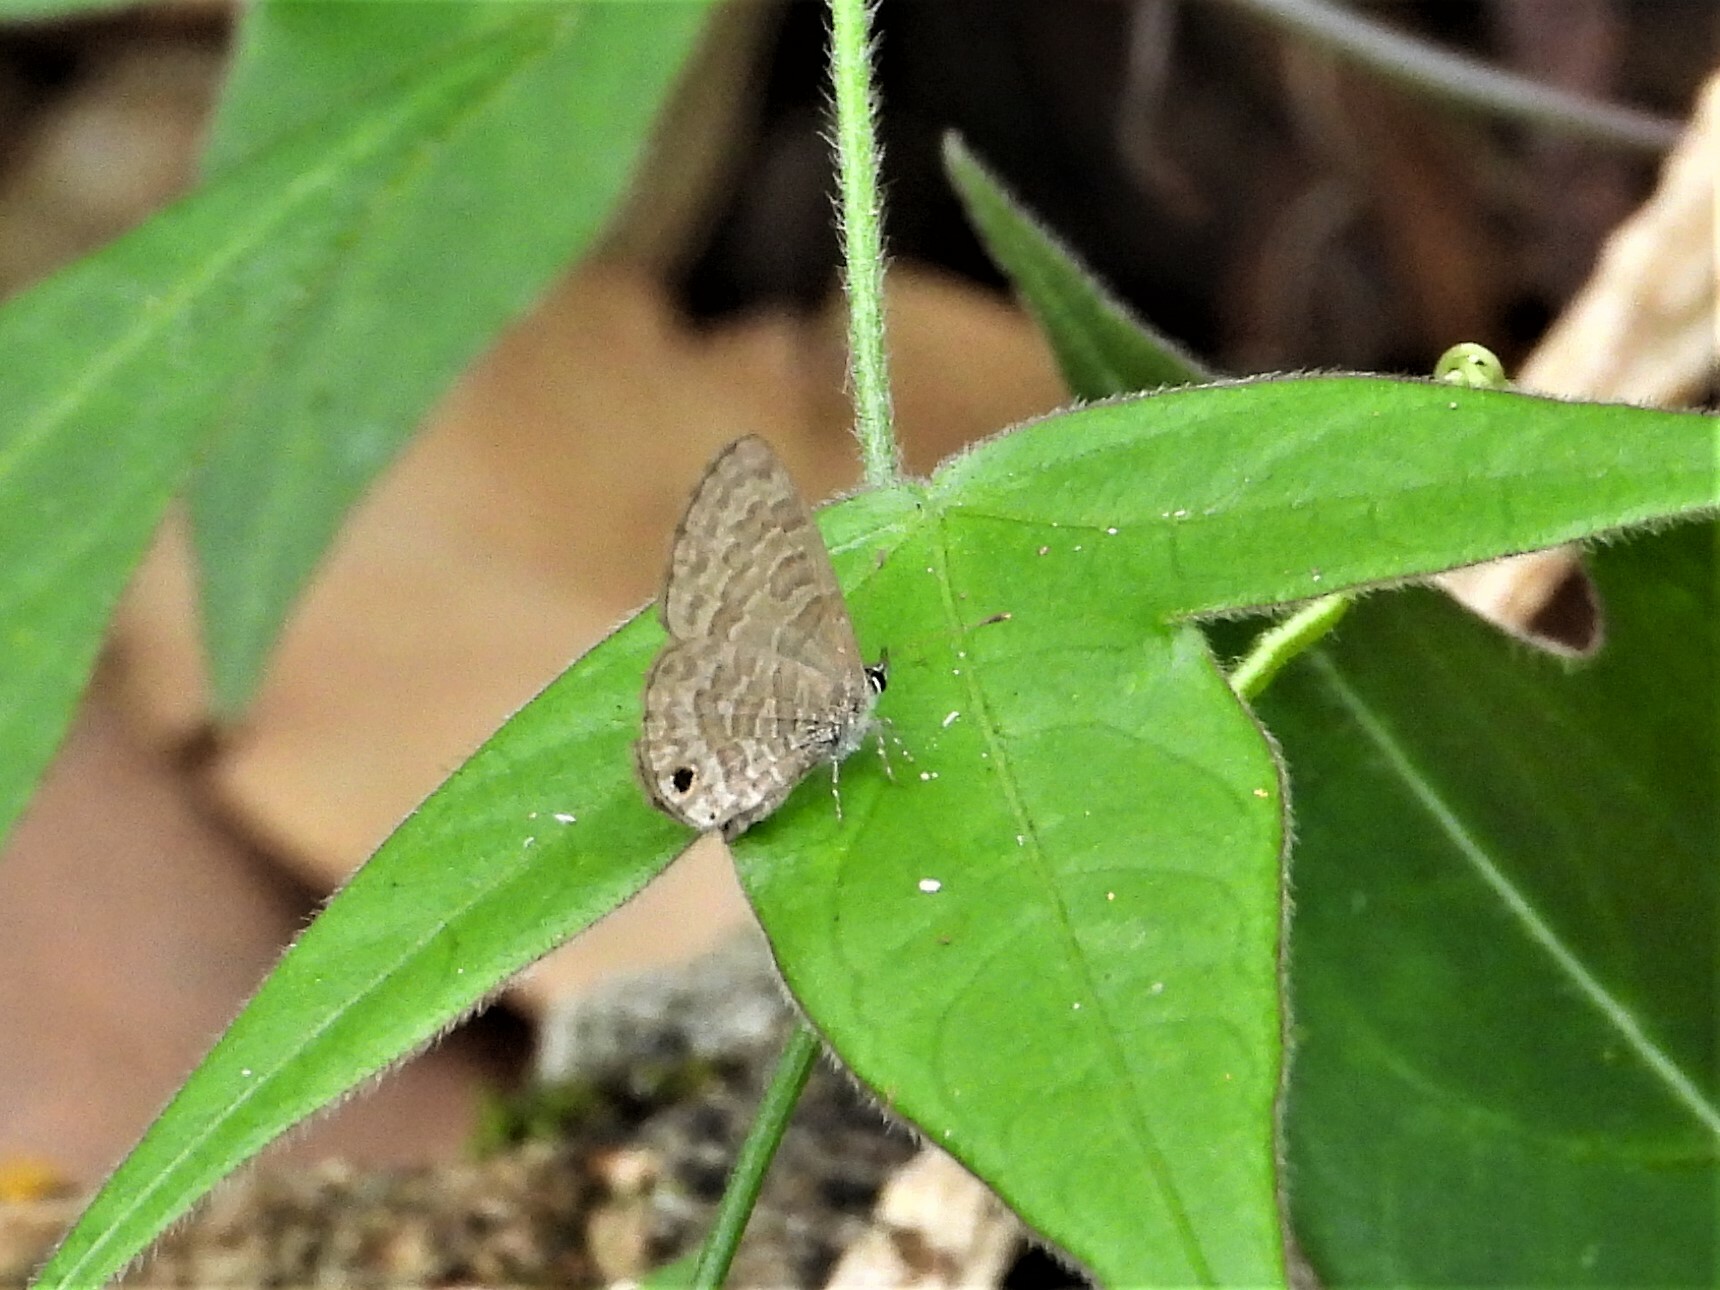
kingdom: Animalia
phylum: Arthropoda
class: Insecta
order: Lepidoptera
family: Lycaenidae
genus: Prosotas
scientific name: Prosotas dubiosa
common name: Tailless lineblue
